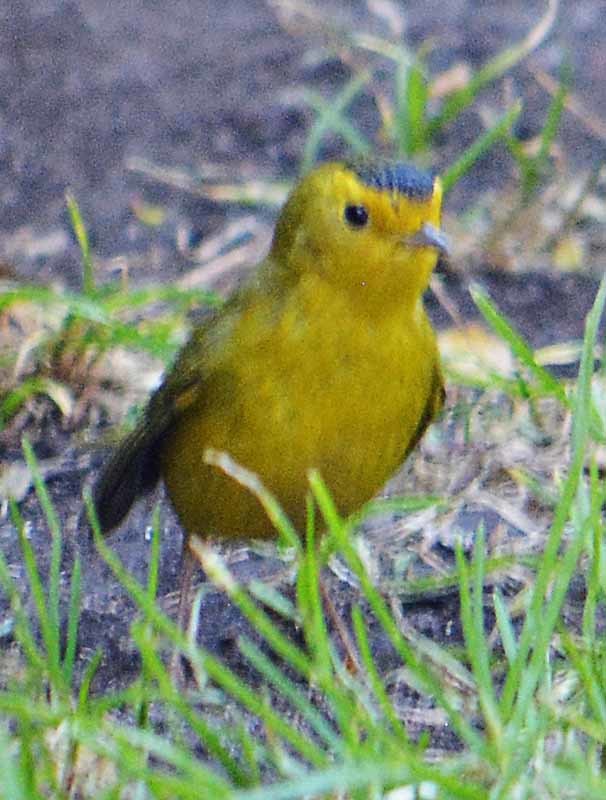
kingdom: Animalia
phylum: Chordata
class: Aves
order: Passeriformes
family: Parulidae
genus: Cardellina
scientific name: Cardellina pusilla
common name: Wilson's warbler
